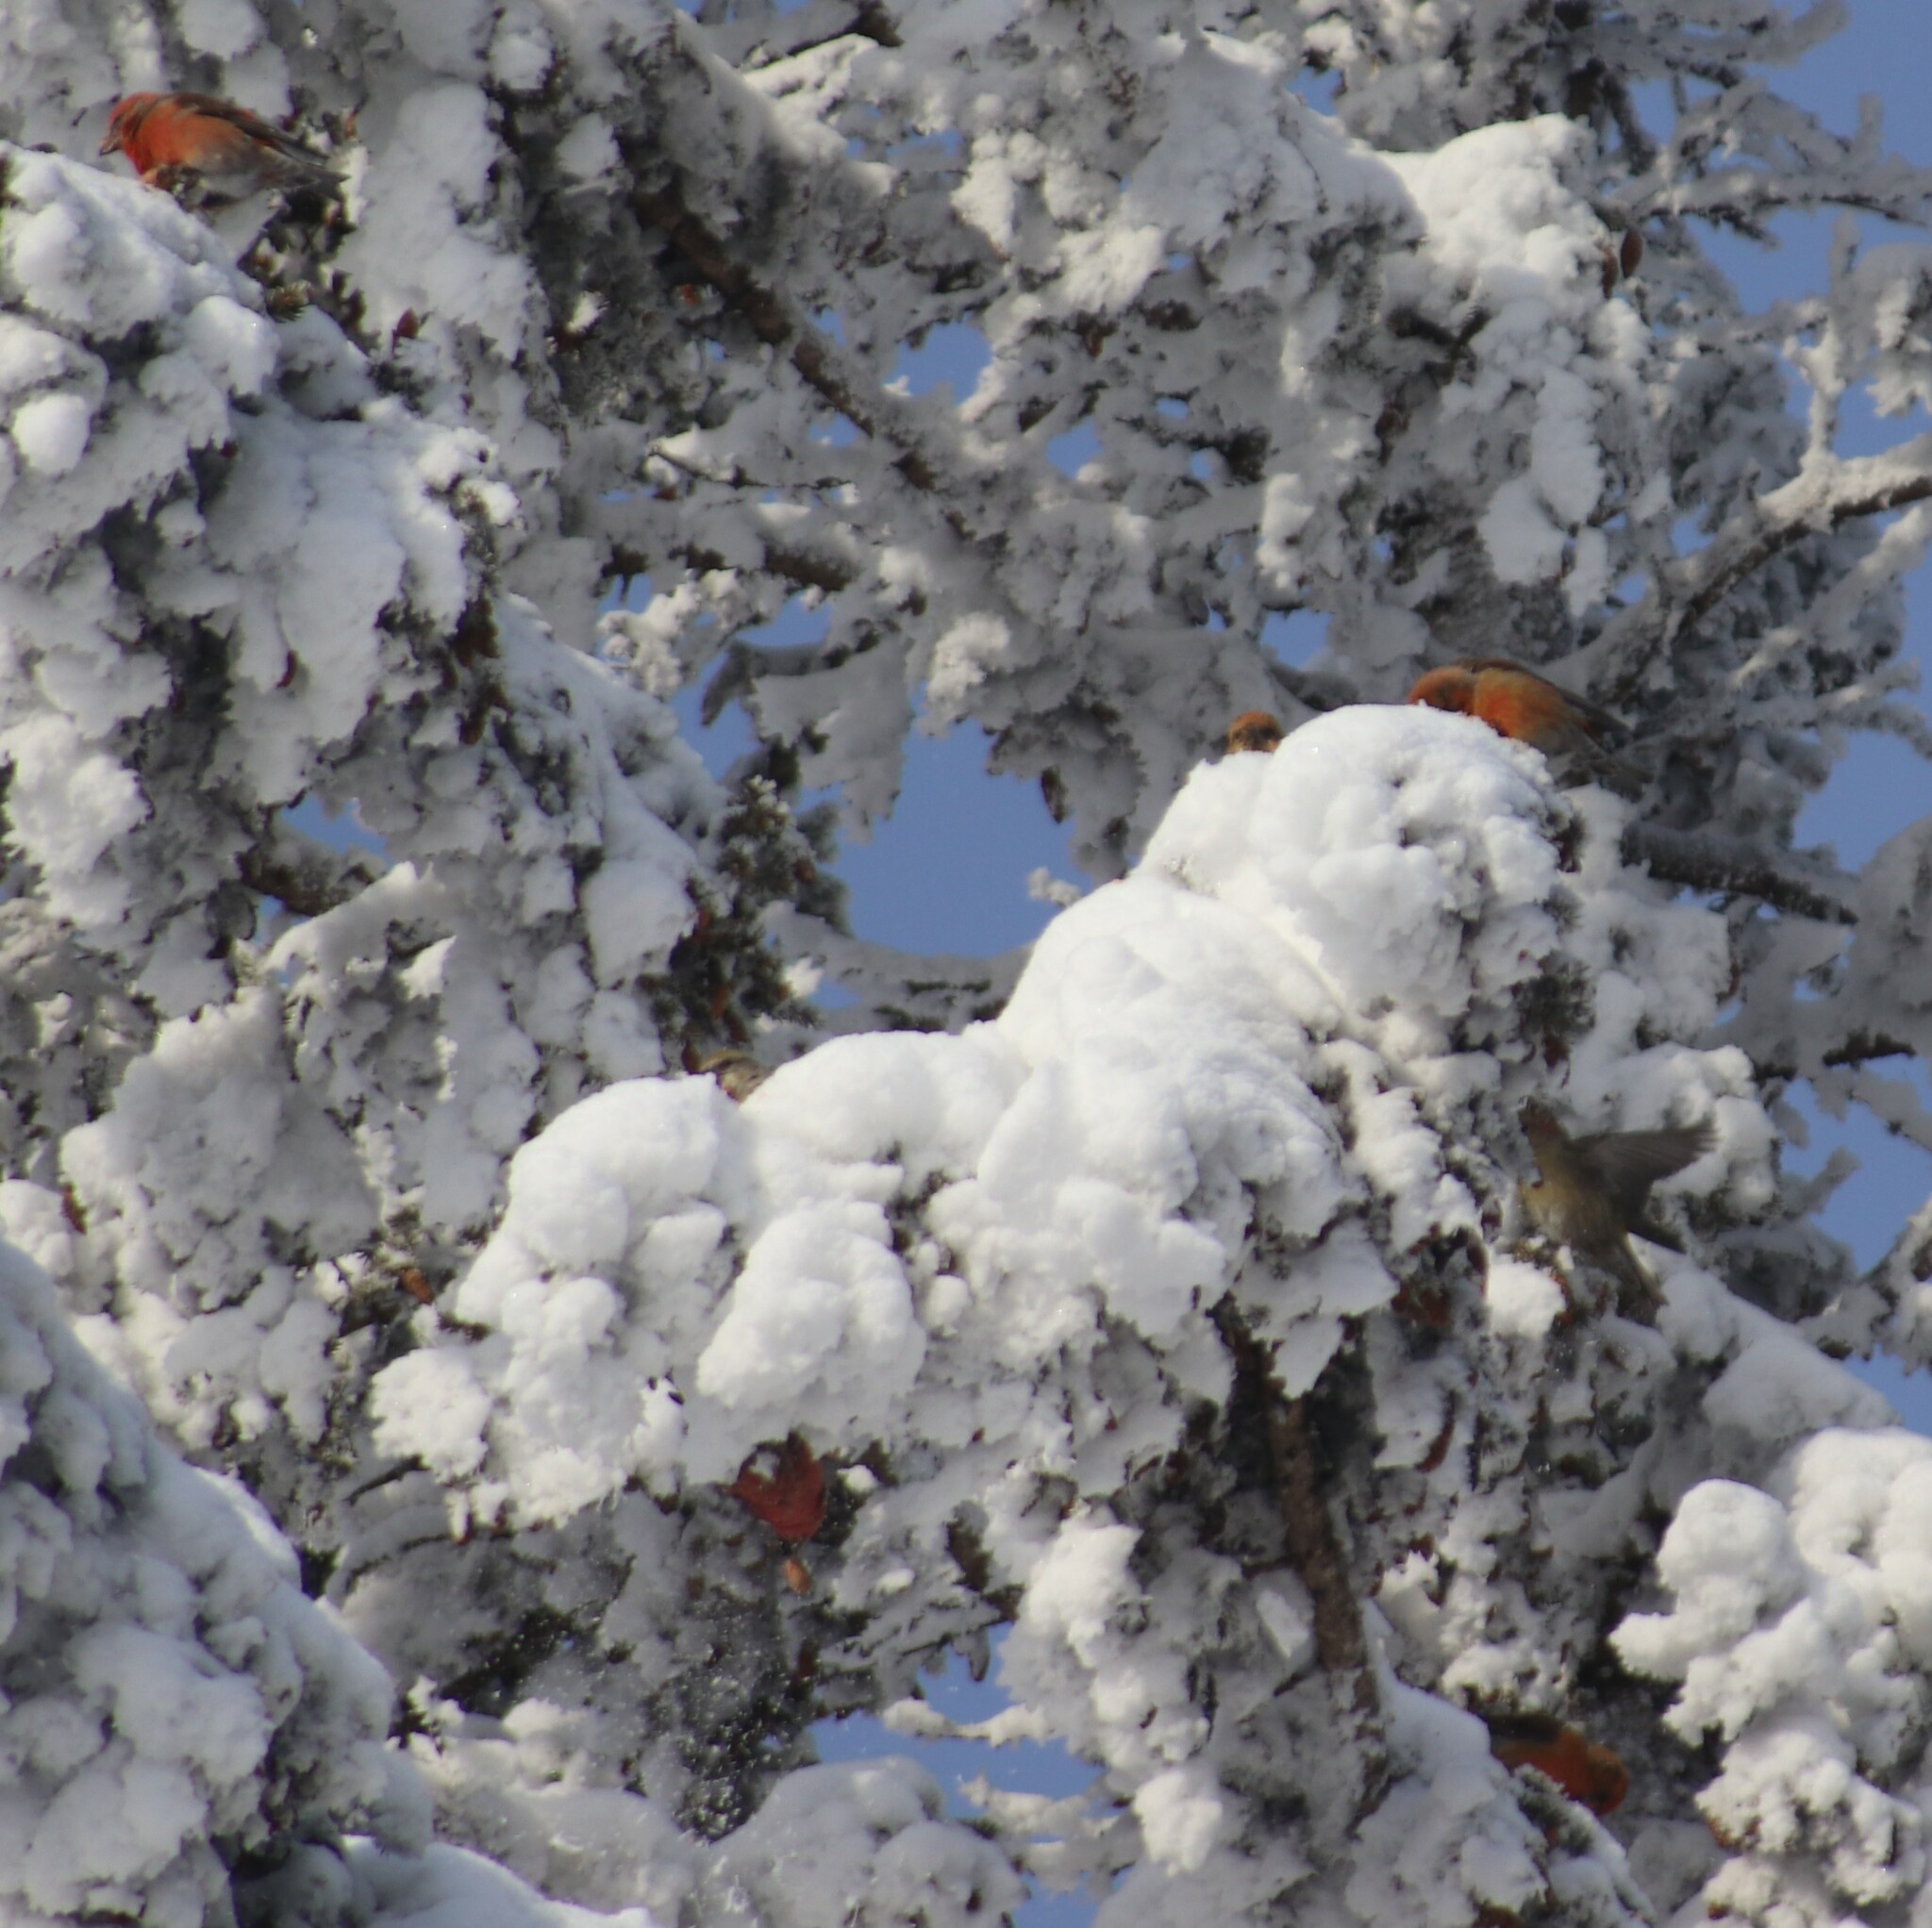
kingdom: Animalia
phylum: Chordata
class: Aves
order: Passeriformes
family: Fringillidae
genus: Loxia
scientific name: Loxia leucoptera
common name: Two-barred crossbill
